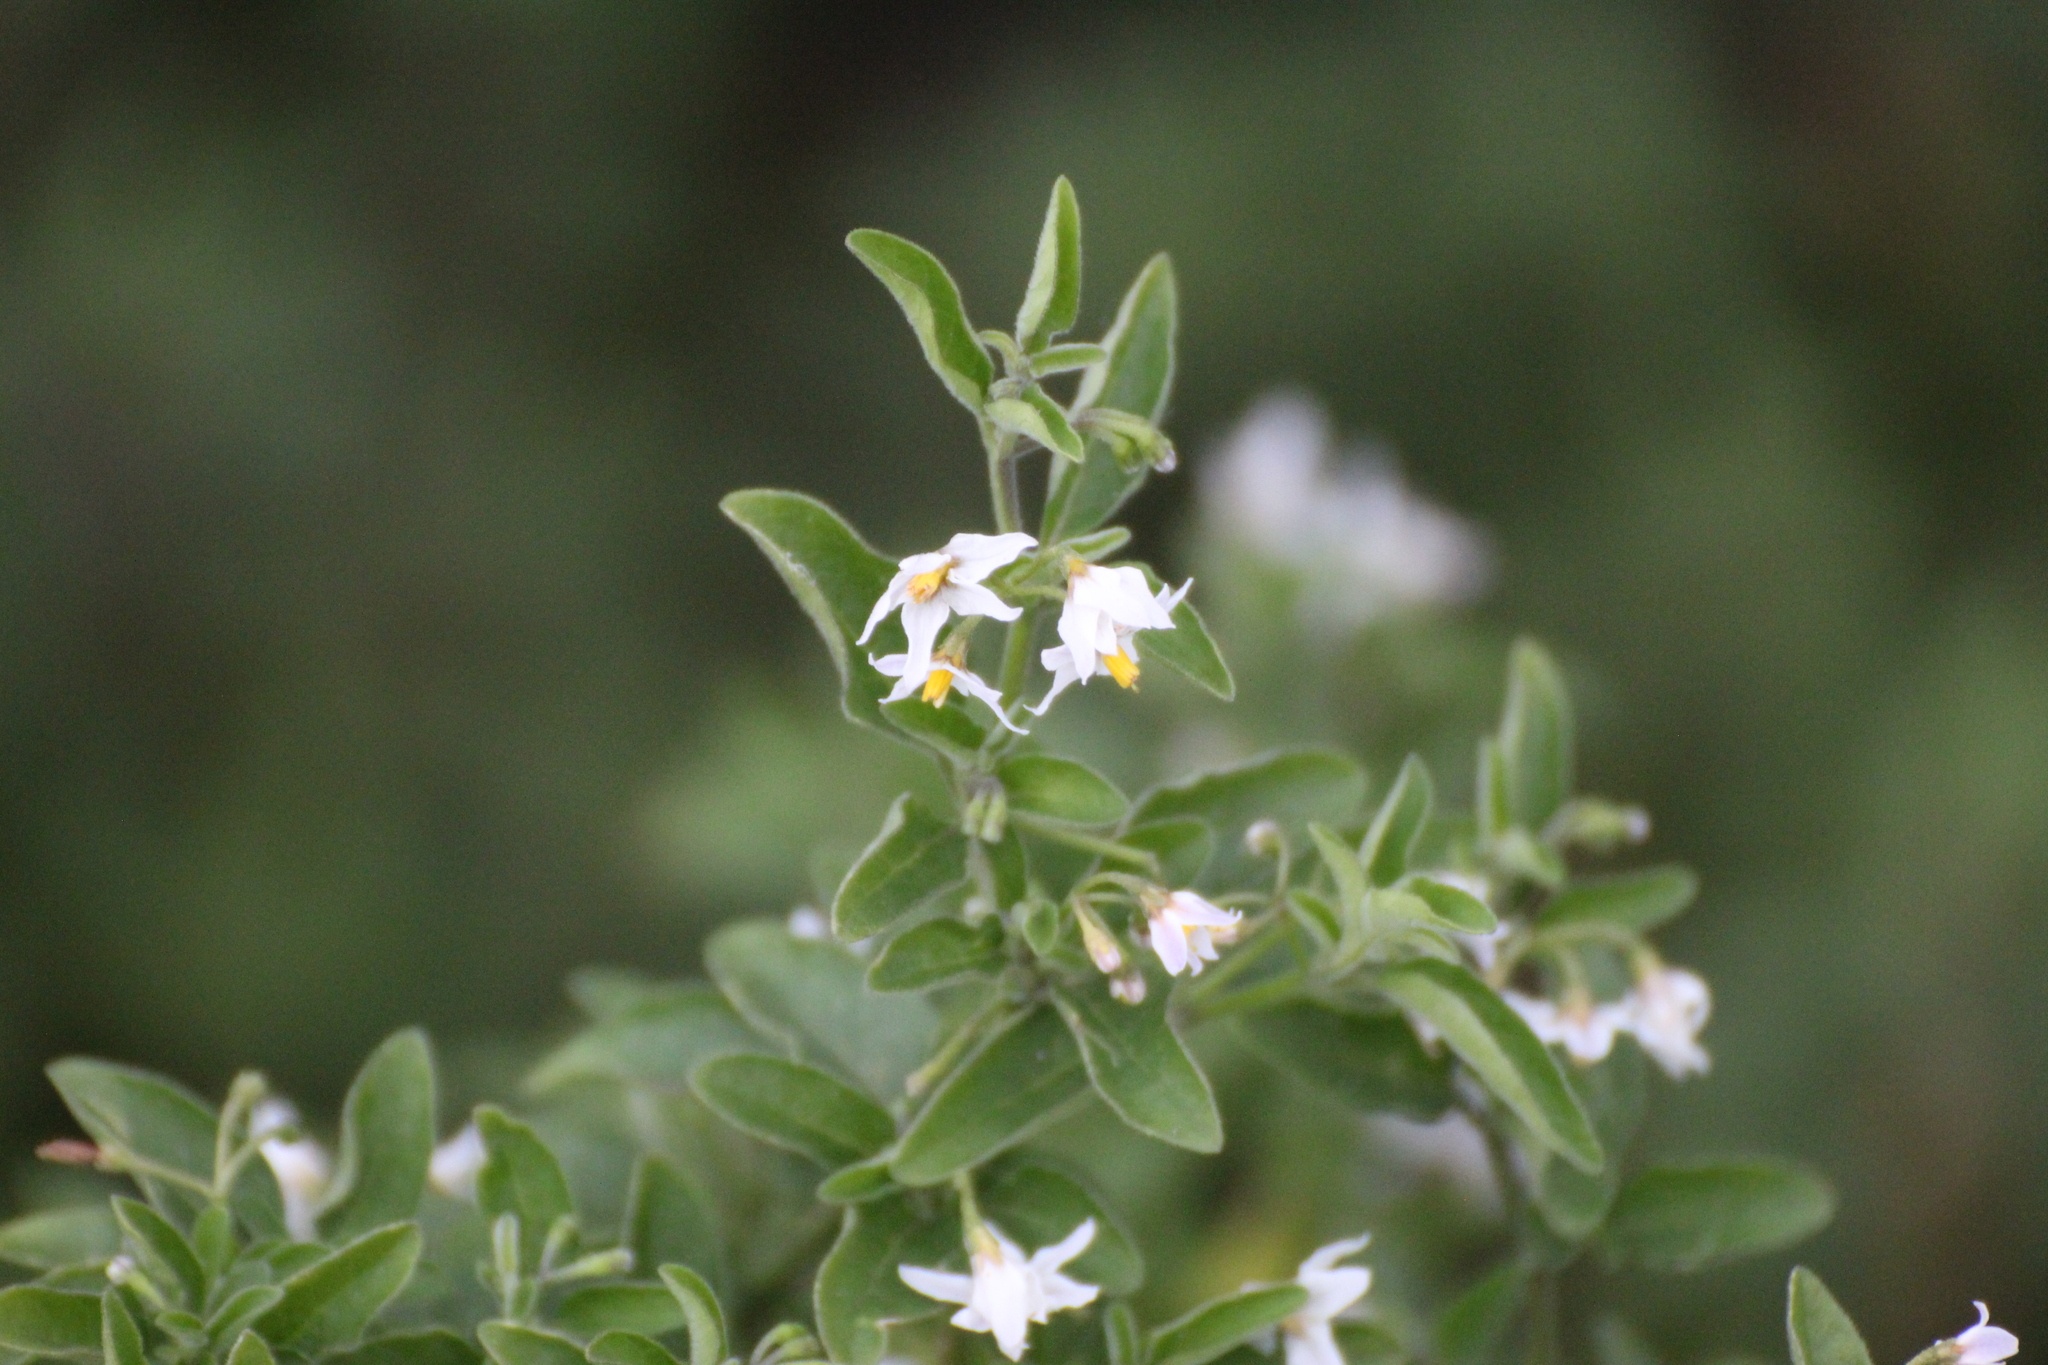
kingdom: Plantae
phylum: Tracheophyta
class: Magnoliopsida
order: Solanales
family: Solanaceae
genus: Solanum
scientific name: Solanum chenopodioides
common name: Tall nightshade
